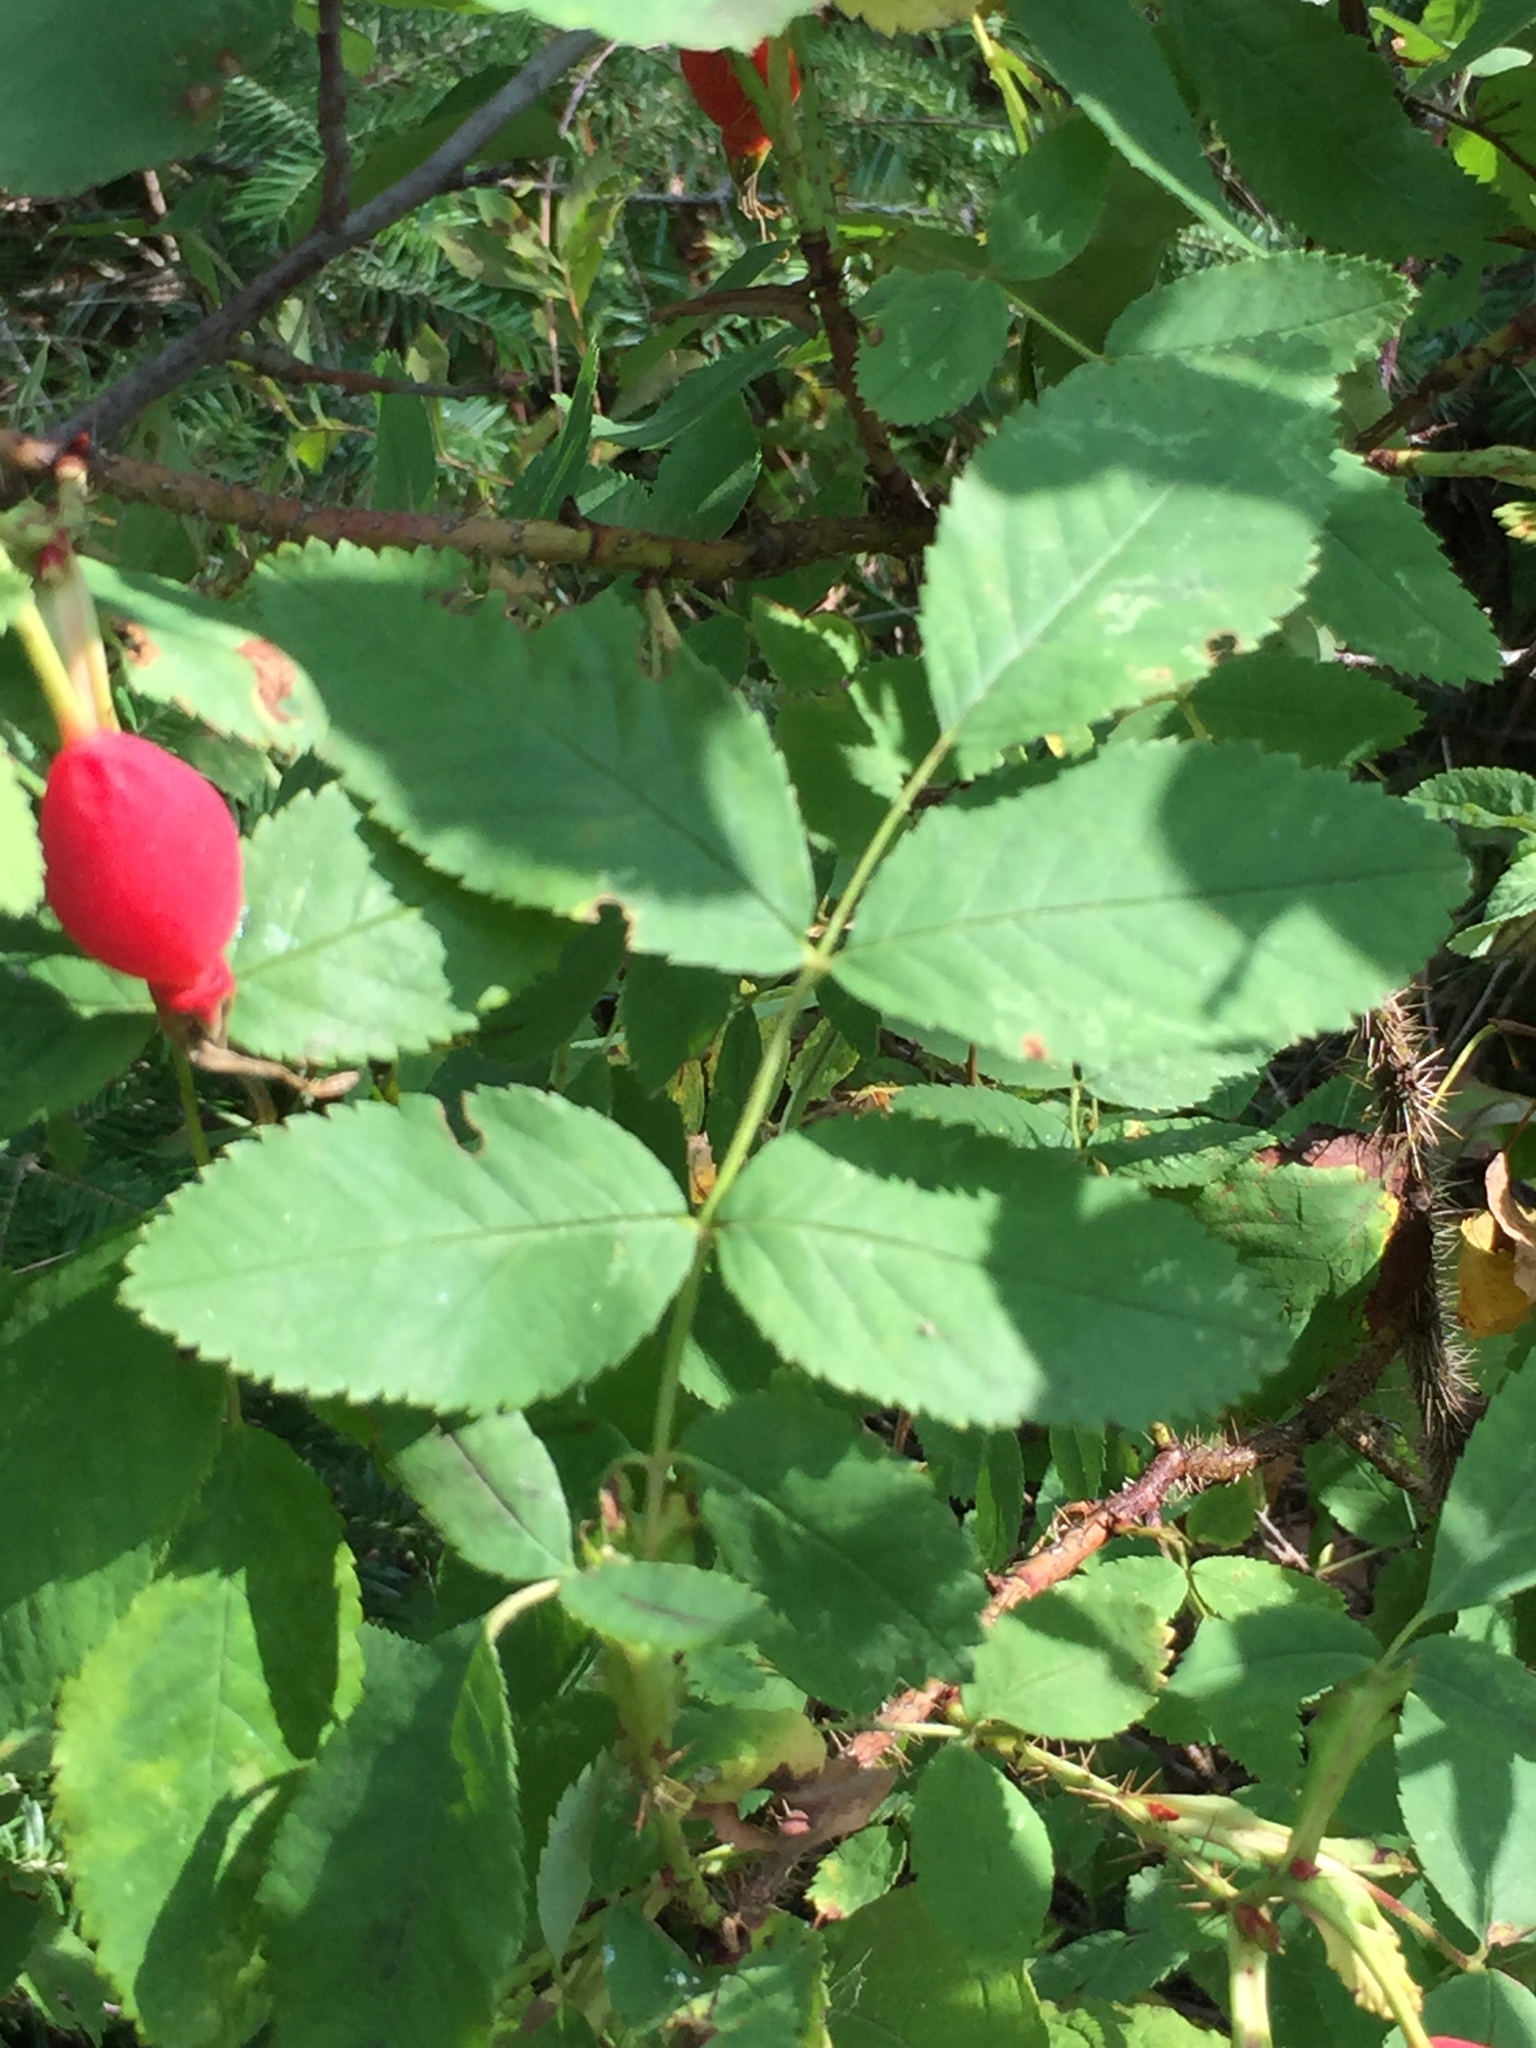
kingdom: Plantae
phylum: Tracheophyta
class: Magnoliopsida
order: Rosales
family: Rosaceae
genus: Rosa
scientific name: Rosa acicularis
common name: Prickly rose
